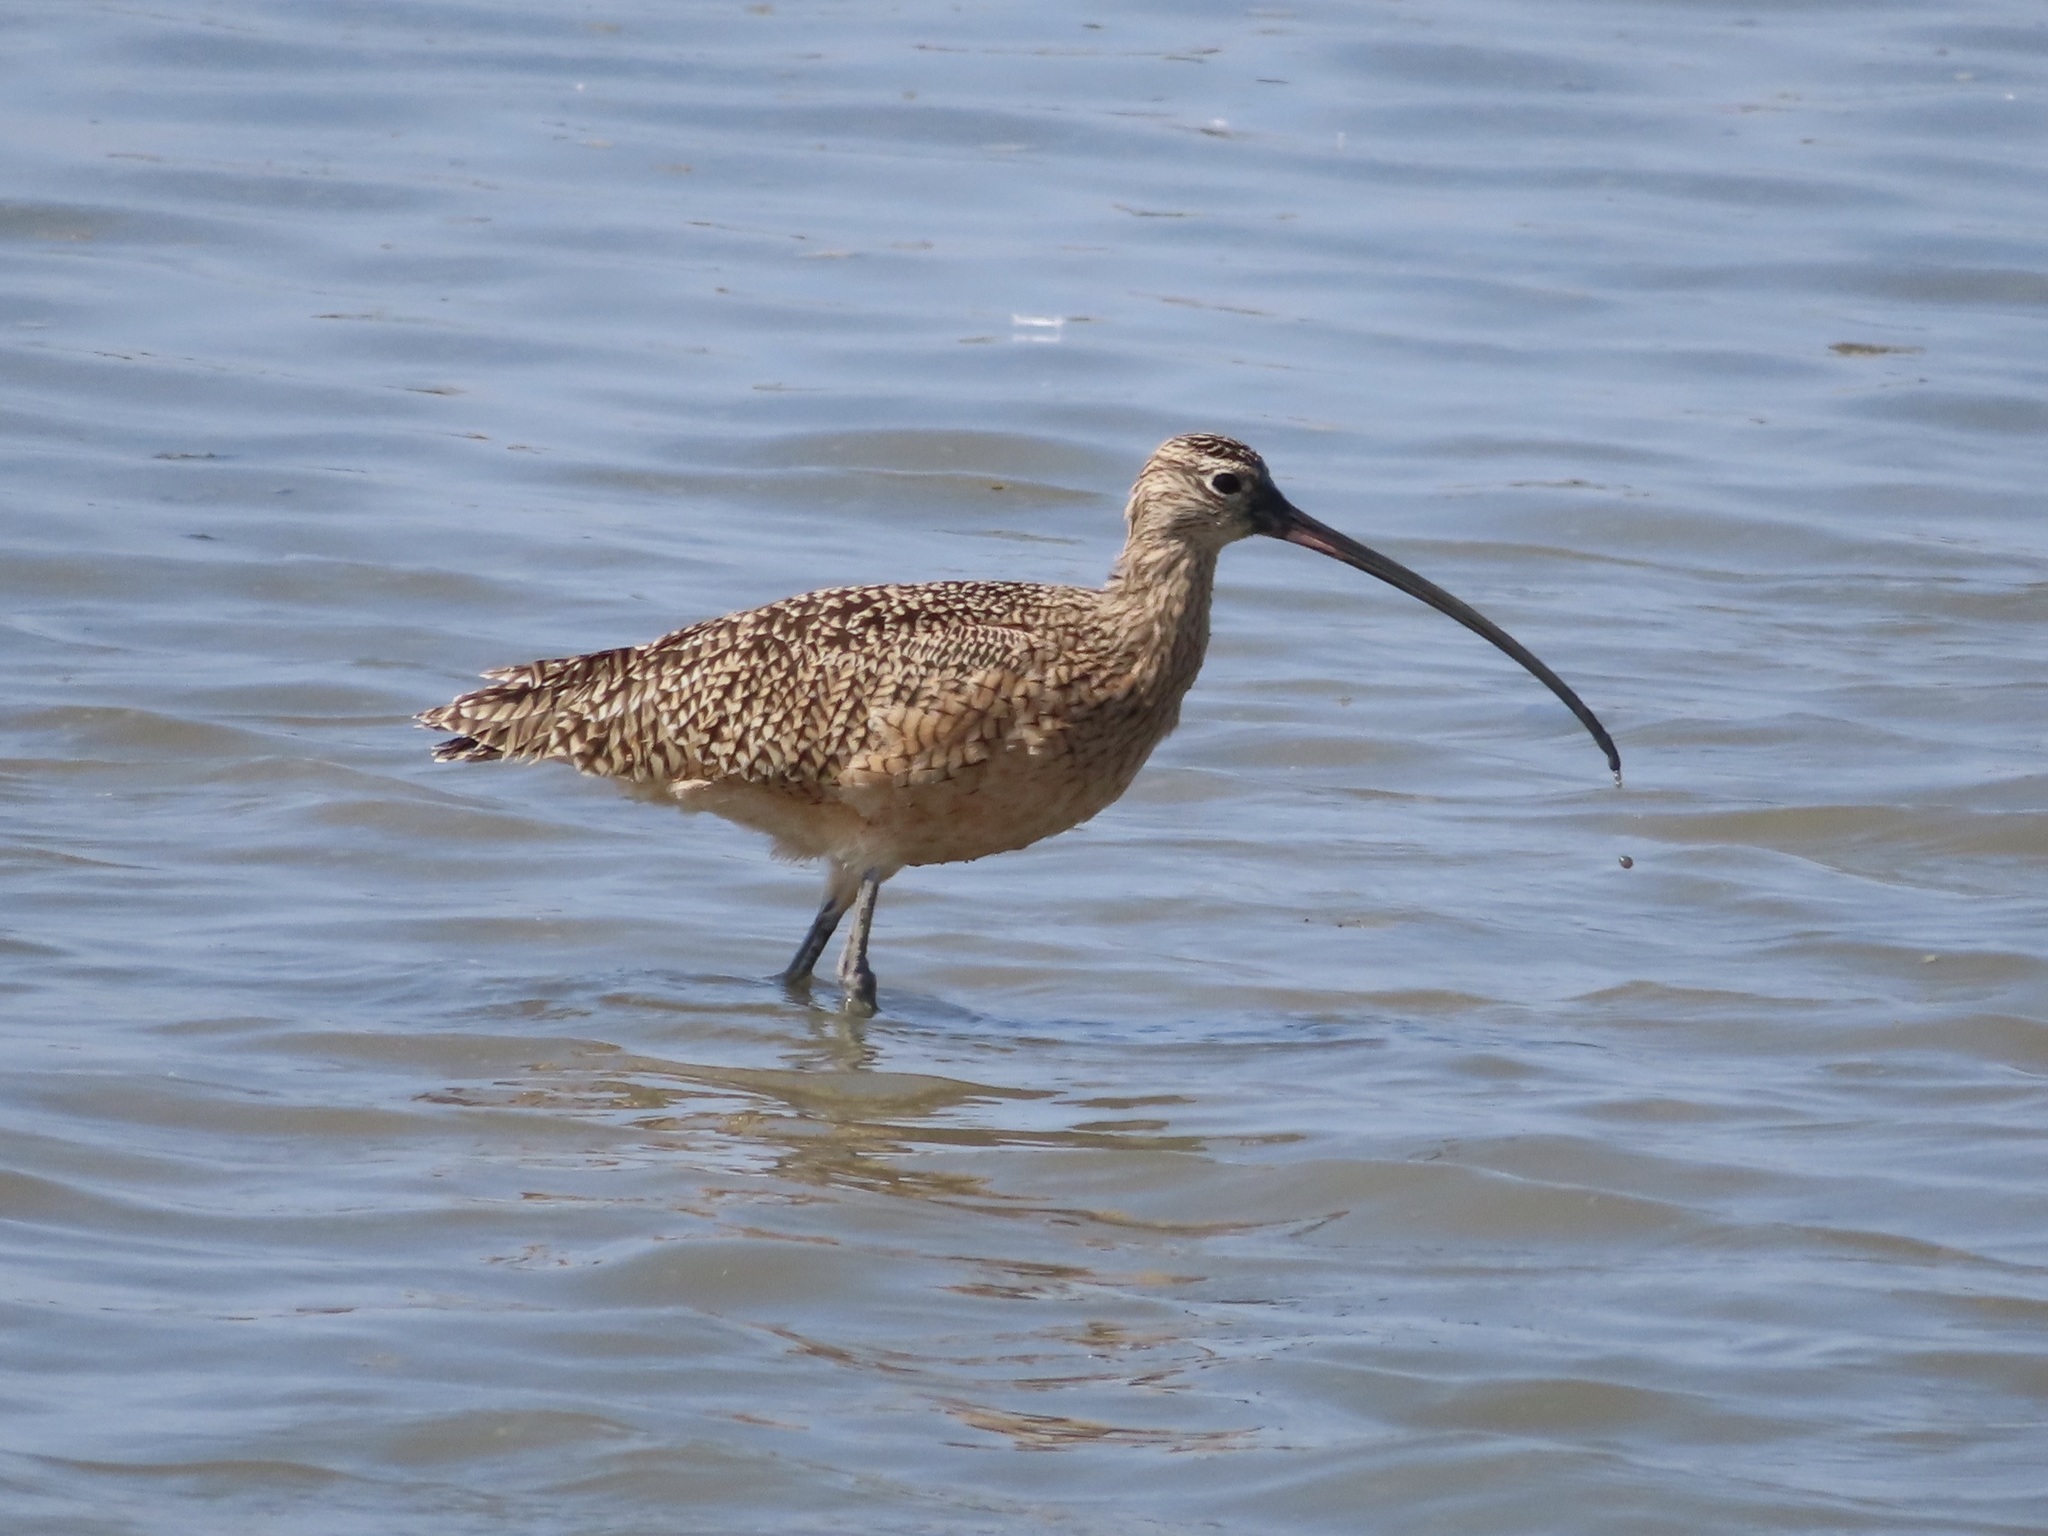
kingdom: Animalia
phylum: Chordata
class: Aves
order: Charadriiformes
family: Scolopacidae
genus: Numenius
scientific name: Numenius americanus
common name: Long-billed curlew
